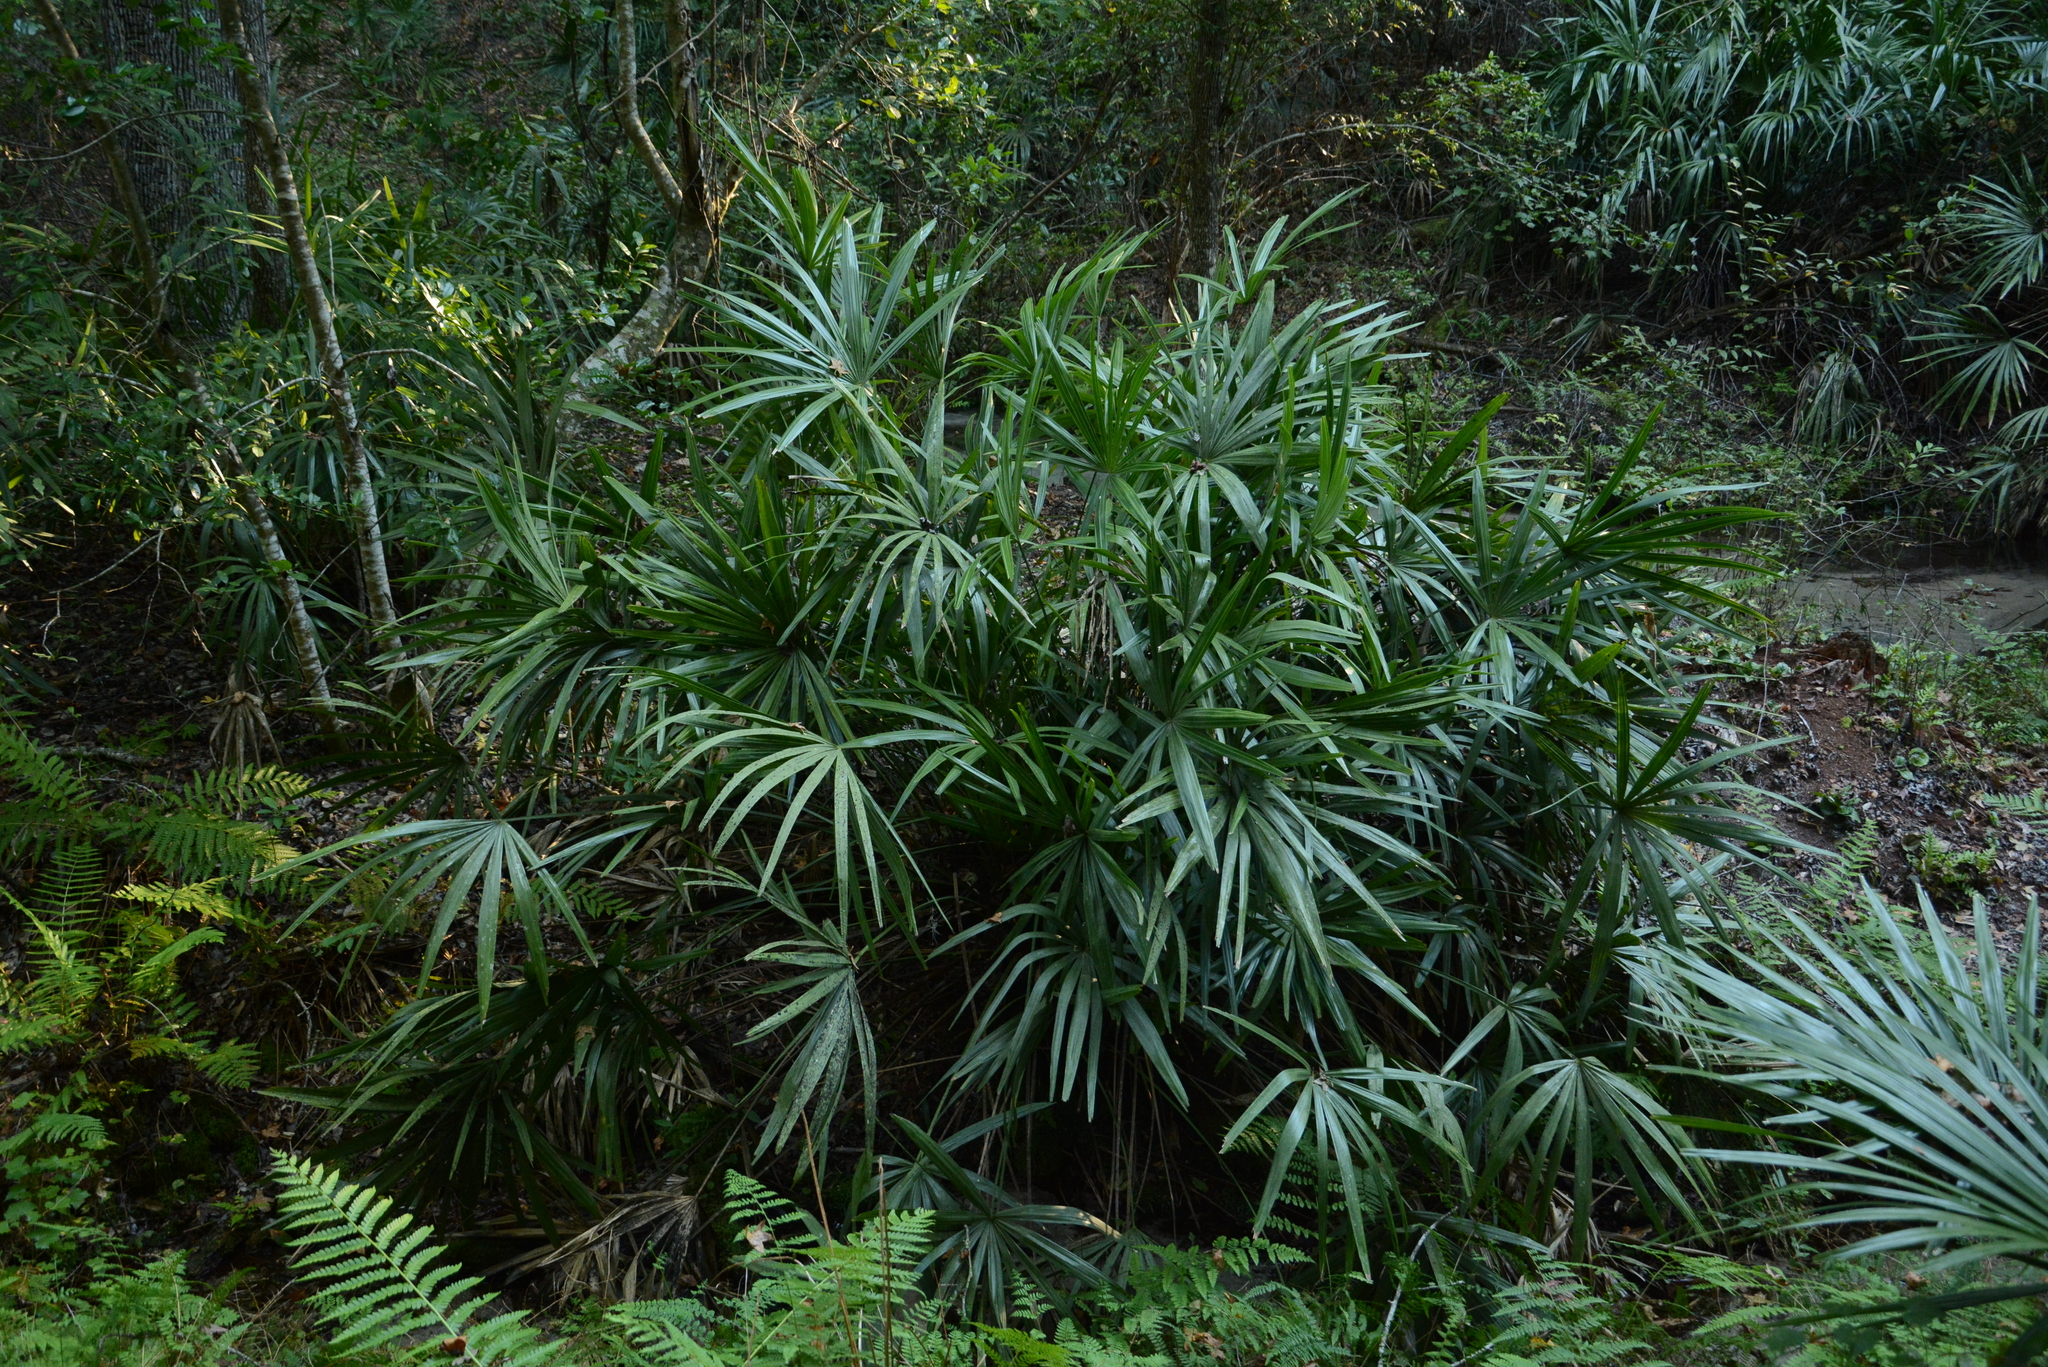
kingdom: Plantae
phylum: Tracheophyta
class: Liliopsida
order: Arecales
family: Arecaceae
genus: Rhapidophyllum
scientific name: Rhapidophyllum hystrix
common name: Porcupine palm
